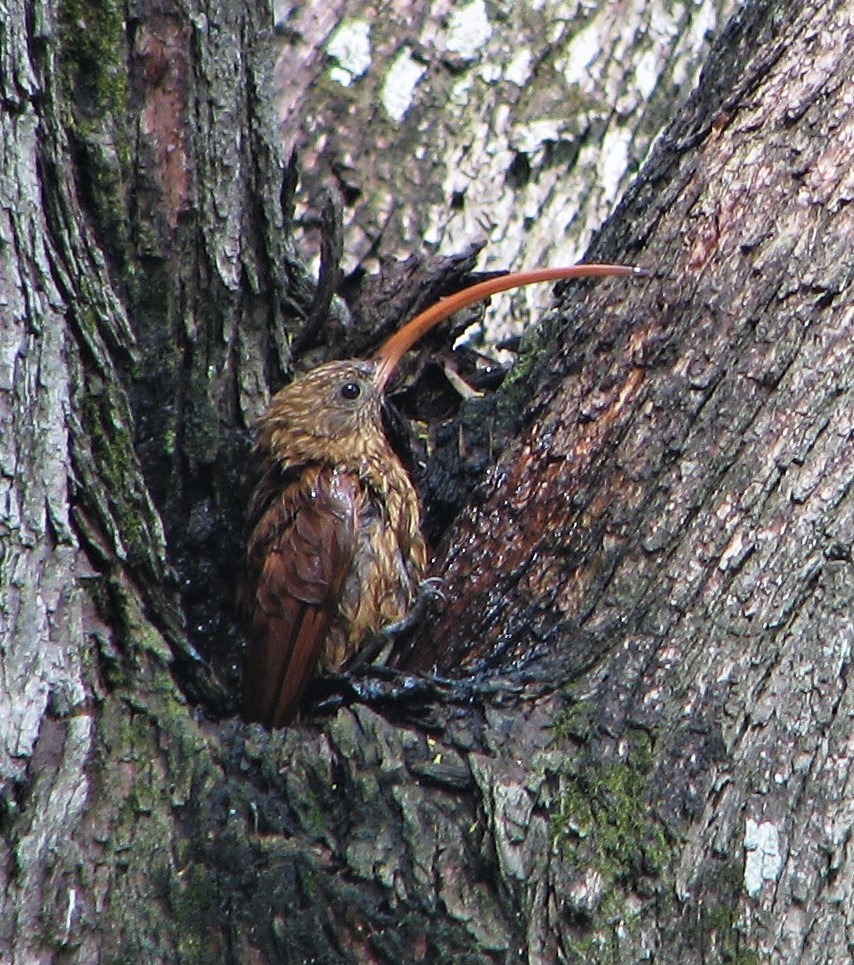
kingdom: Animalia
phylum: Chordata
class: Aves
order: Passeriformes
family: Furnariidae
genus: Campylorhamphus
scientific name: Campylorhamphus trochilirostris
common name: Red-billed scythebill
